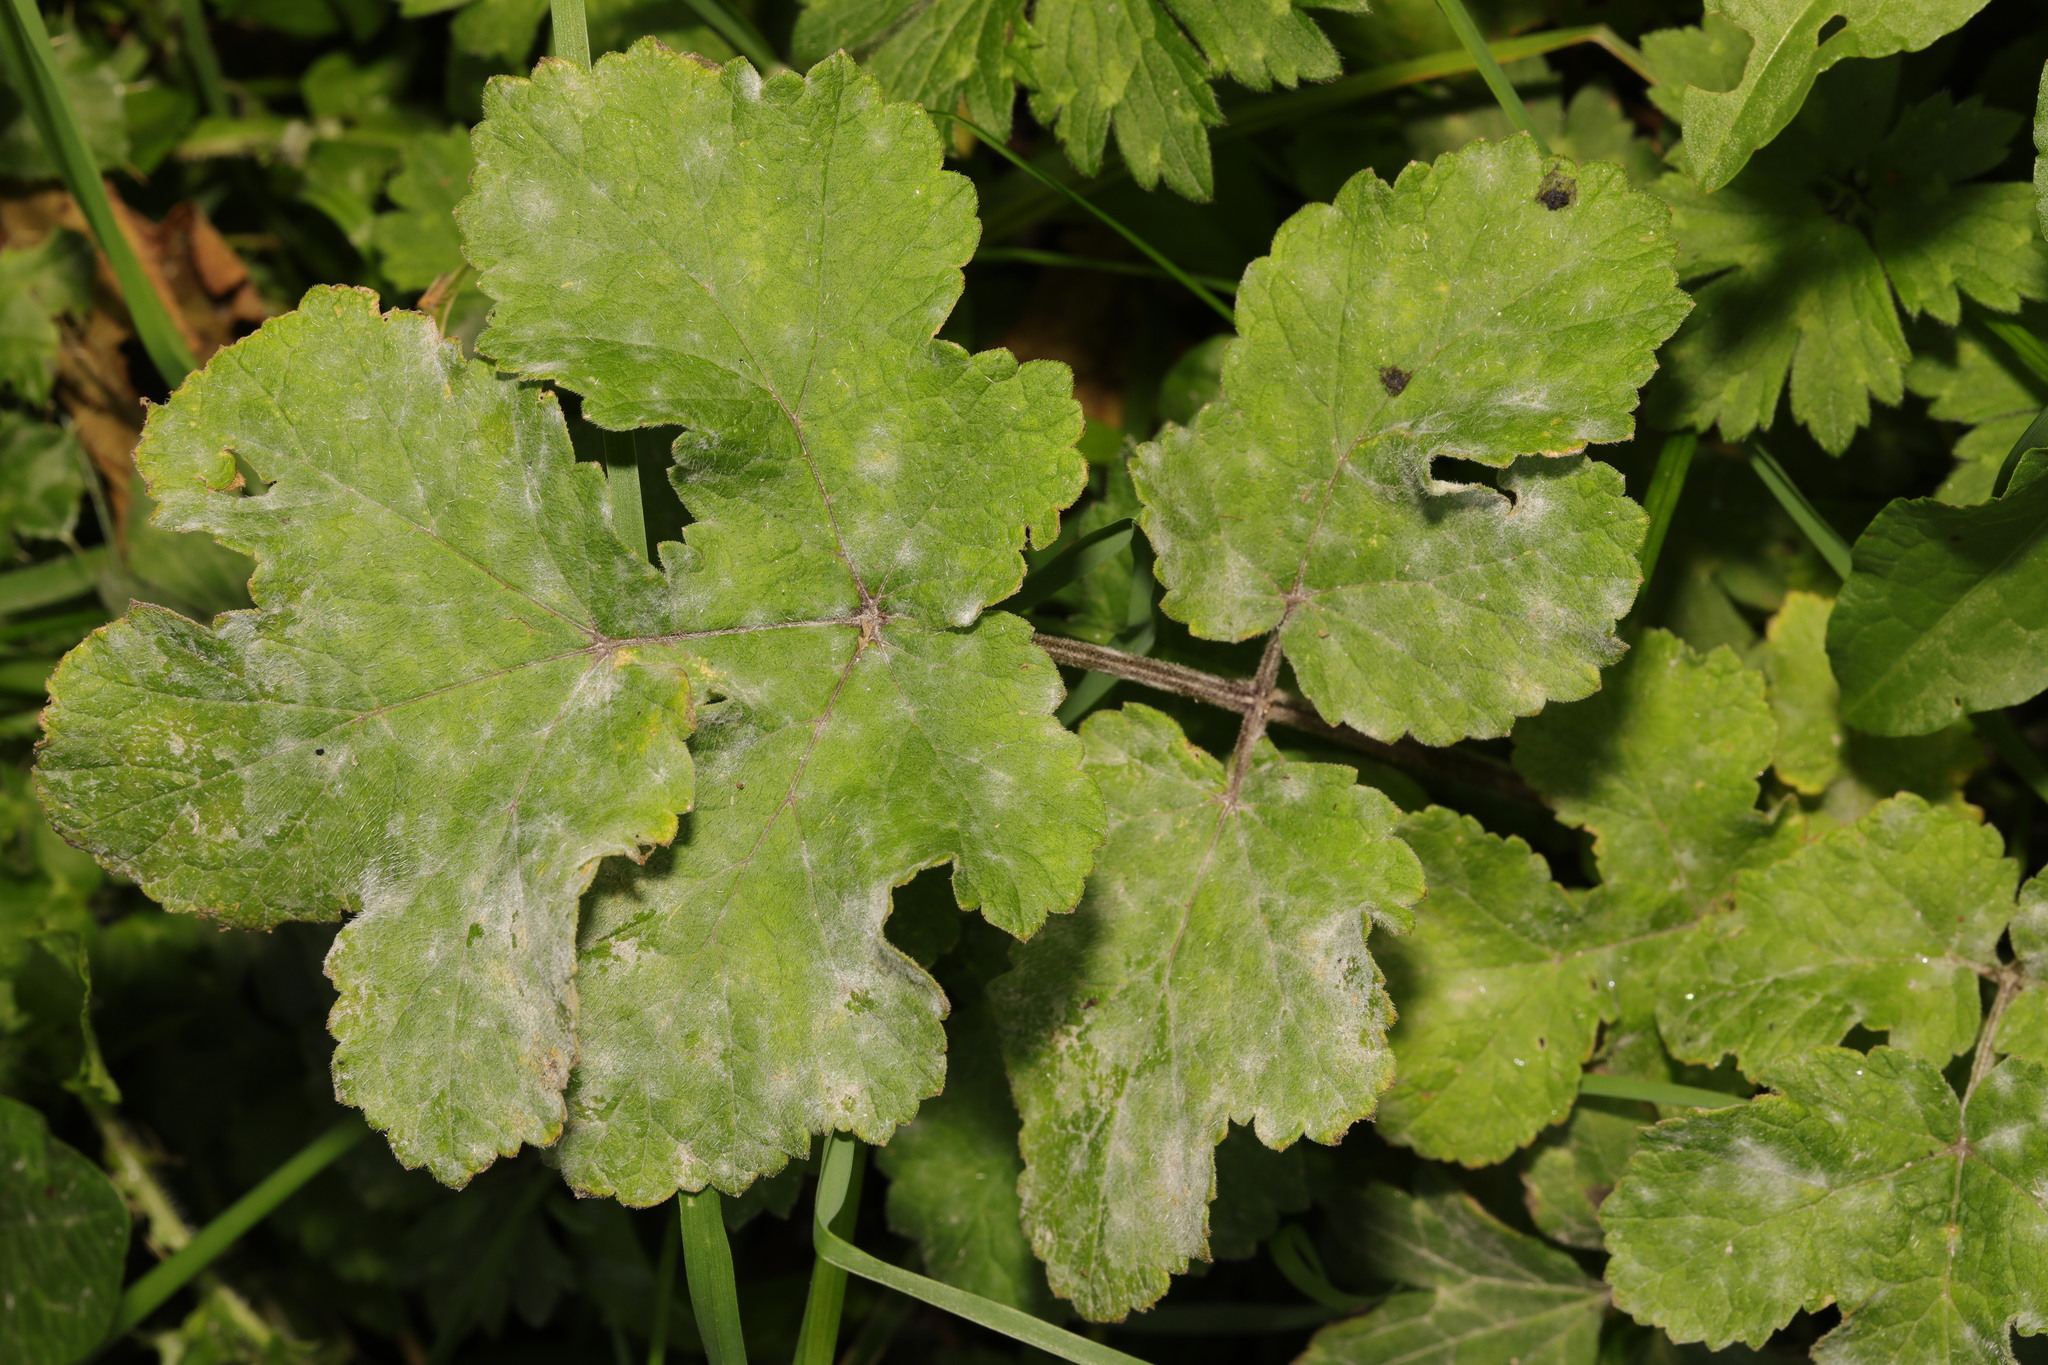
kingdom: Plantae
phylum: Tracheophyta
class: Magnoliopsida
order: Apiales
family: Apiaceae
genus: Heracleum
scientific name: Heracleum sphondylium
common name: Hogweed
